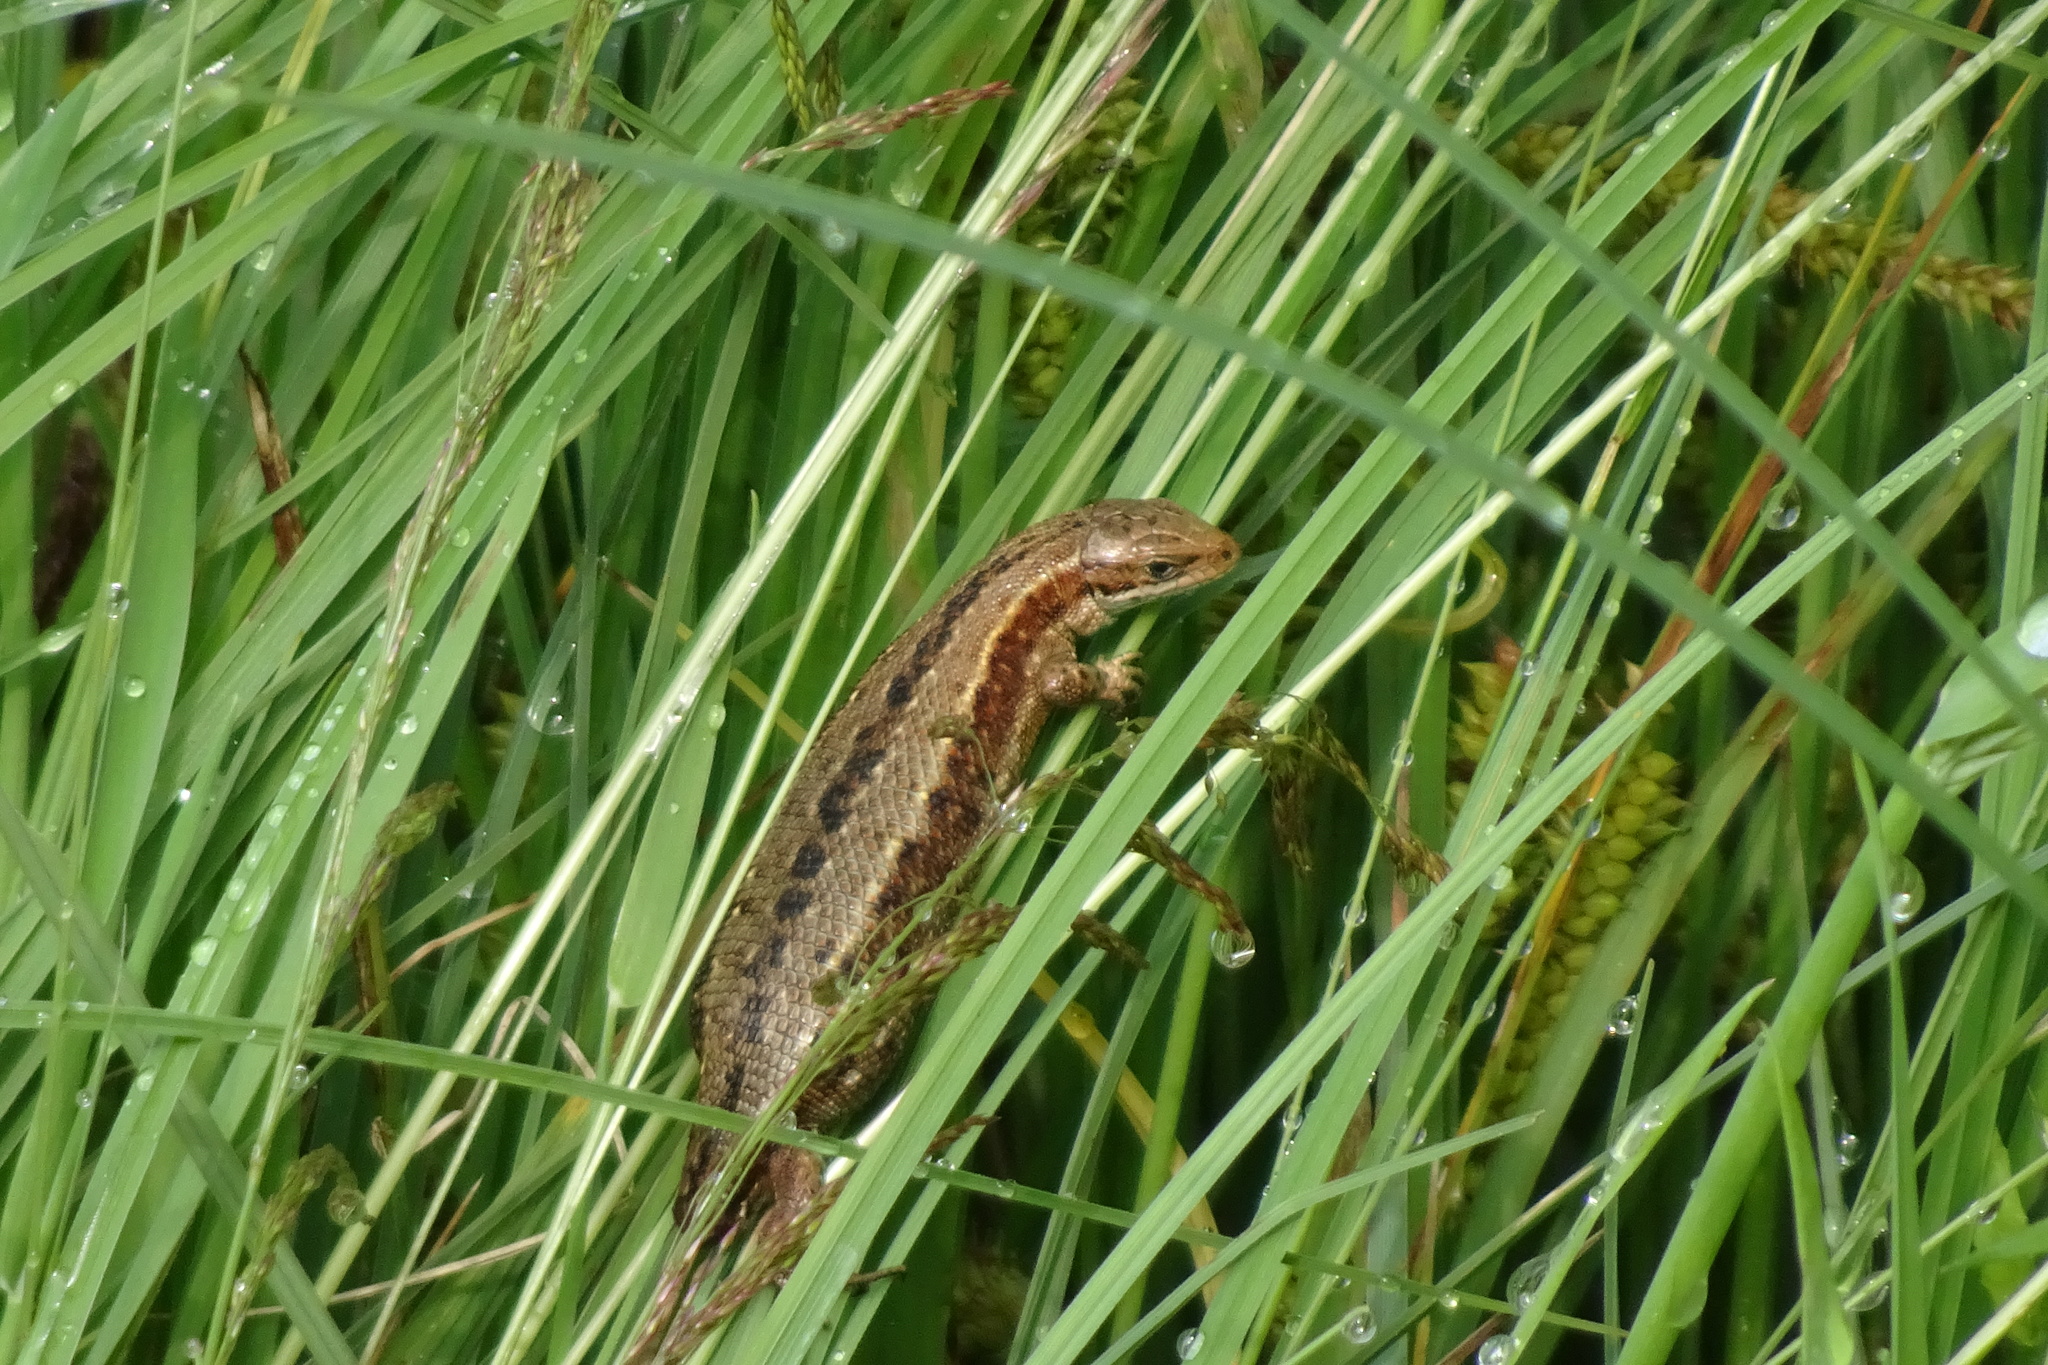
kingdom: Animalia
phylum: Chordata
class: Squamata
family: Lacertidae
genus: Zootoca
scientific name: Zootoca vivipara
